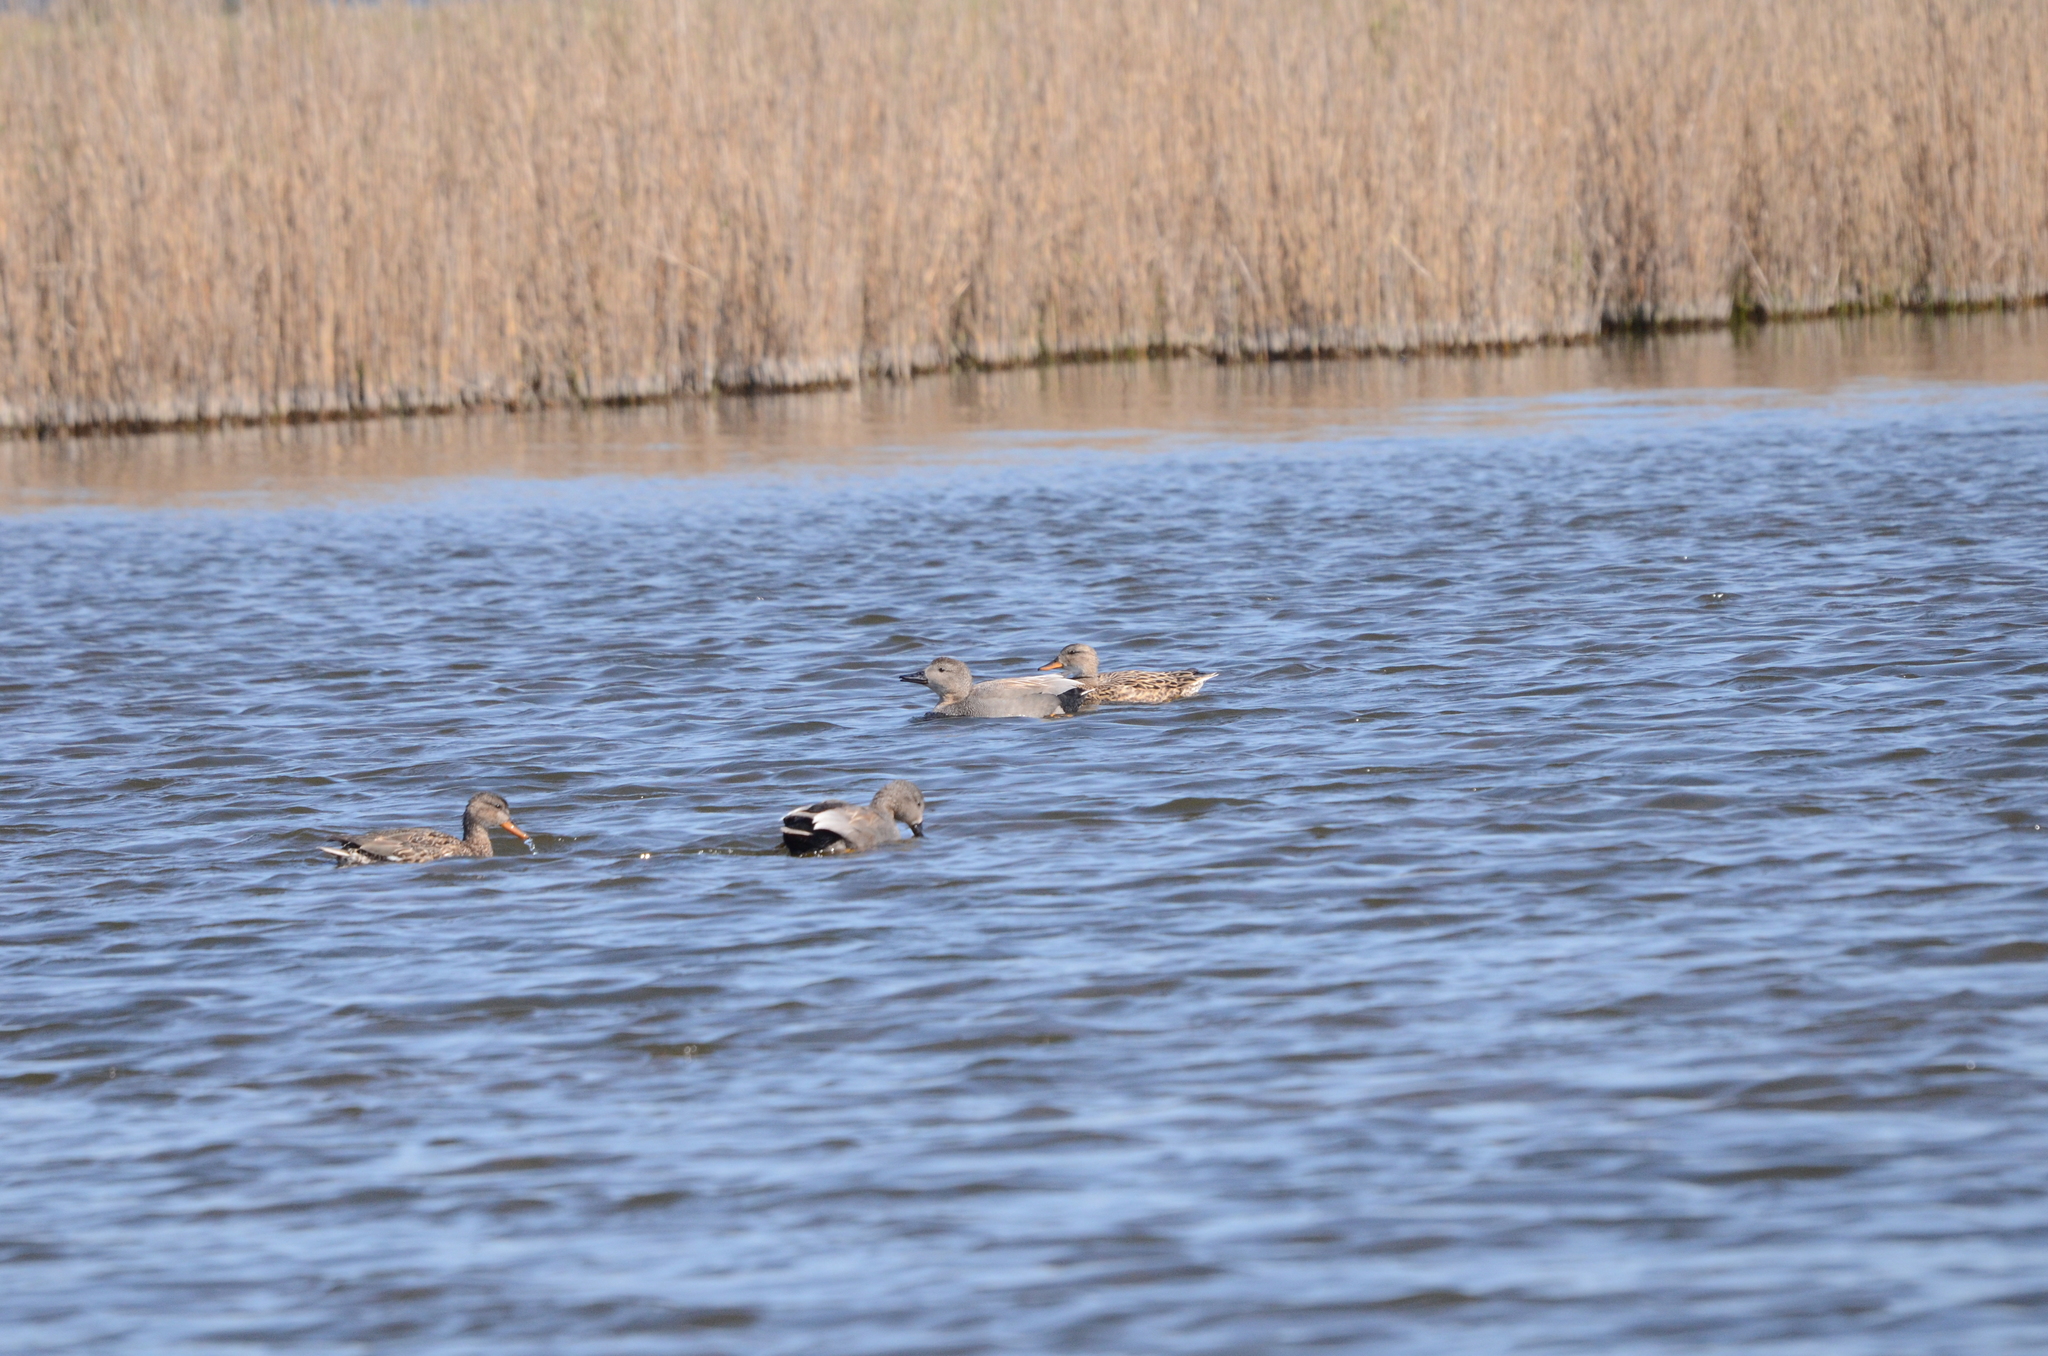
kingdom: Animalia
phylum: Chordata
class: Aves
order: Anseriformes
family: Anatidae
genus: Mareca
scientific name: Mareca strepera
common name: Gadwall
